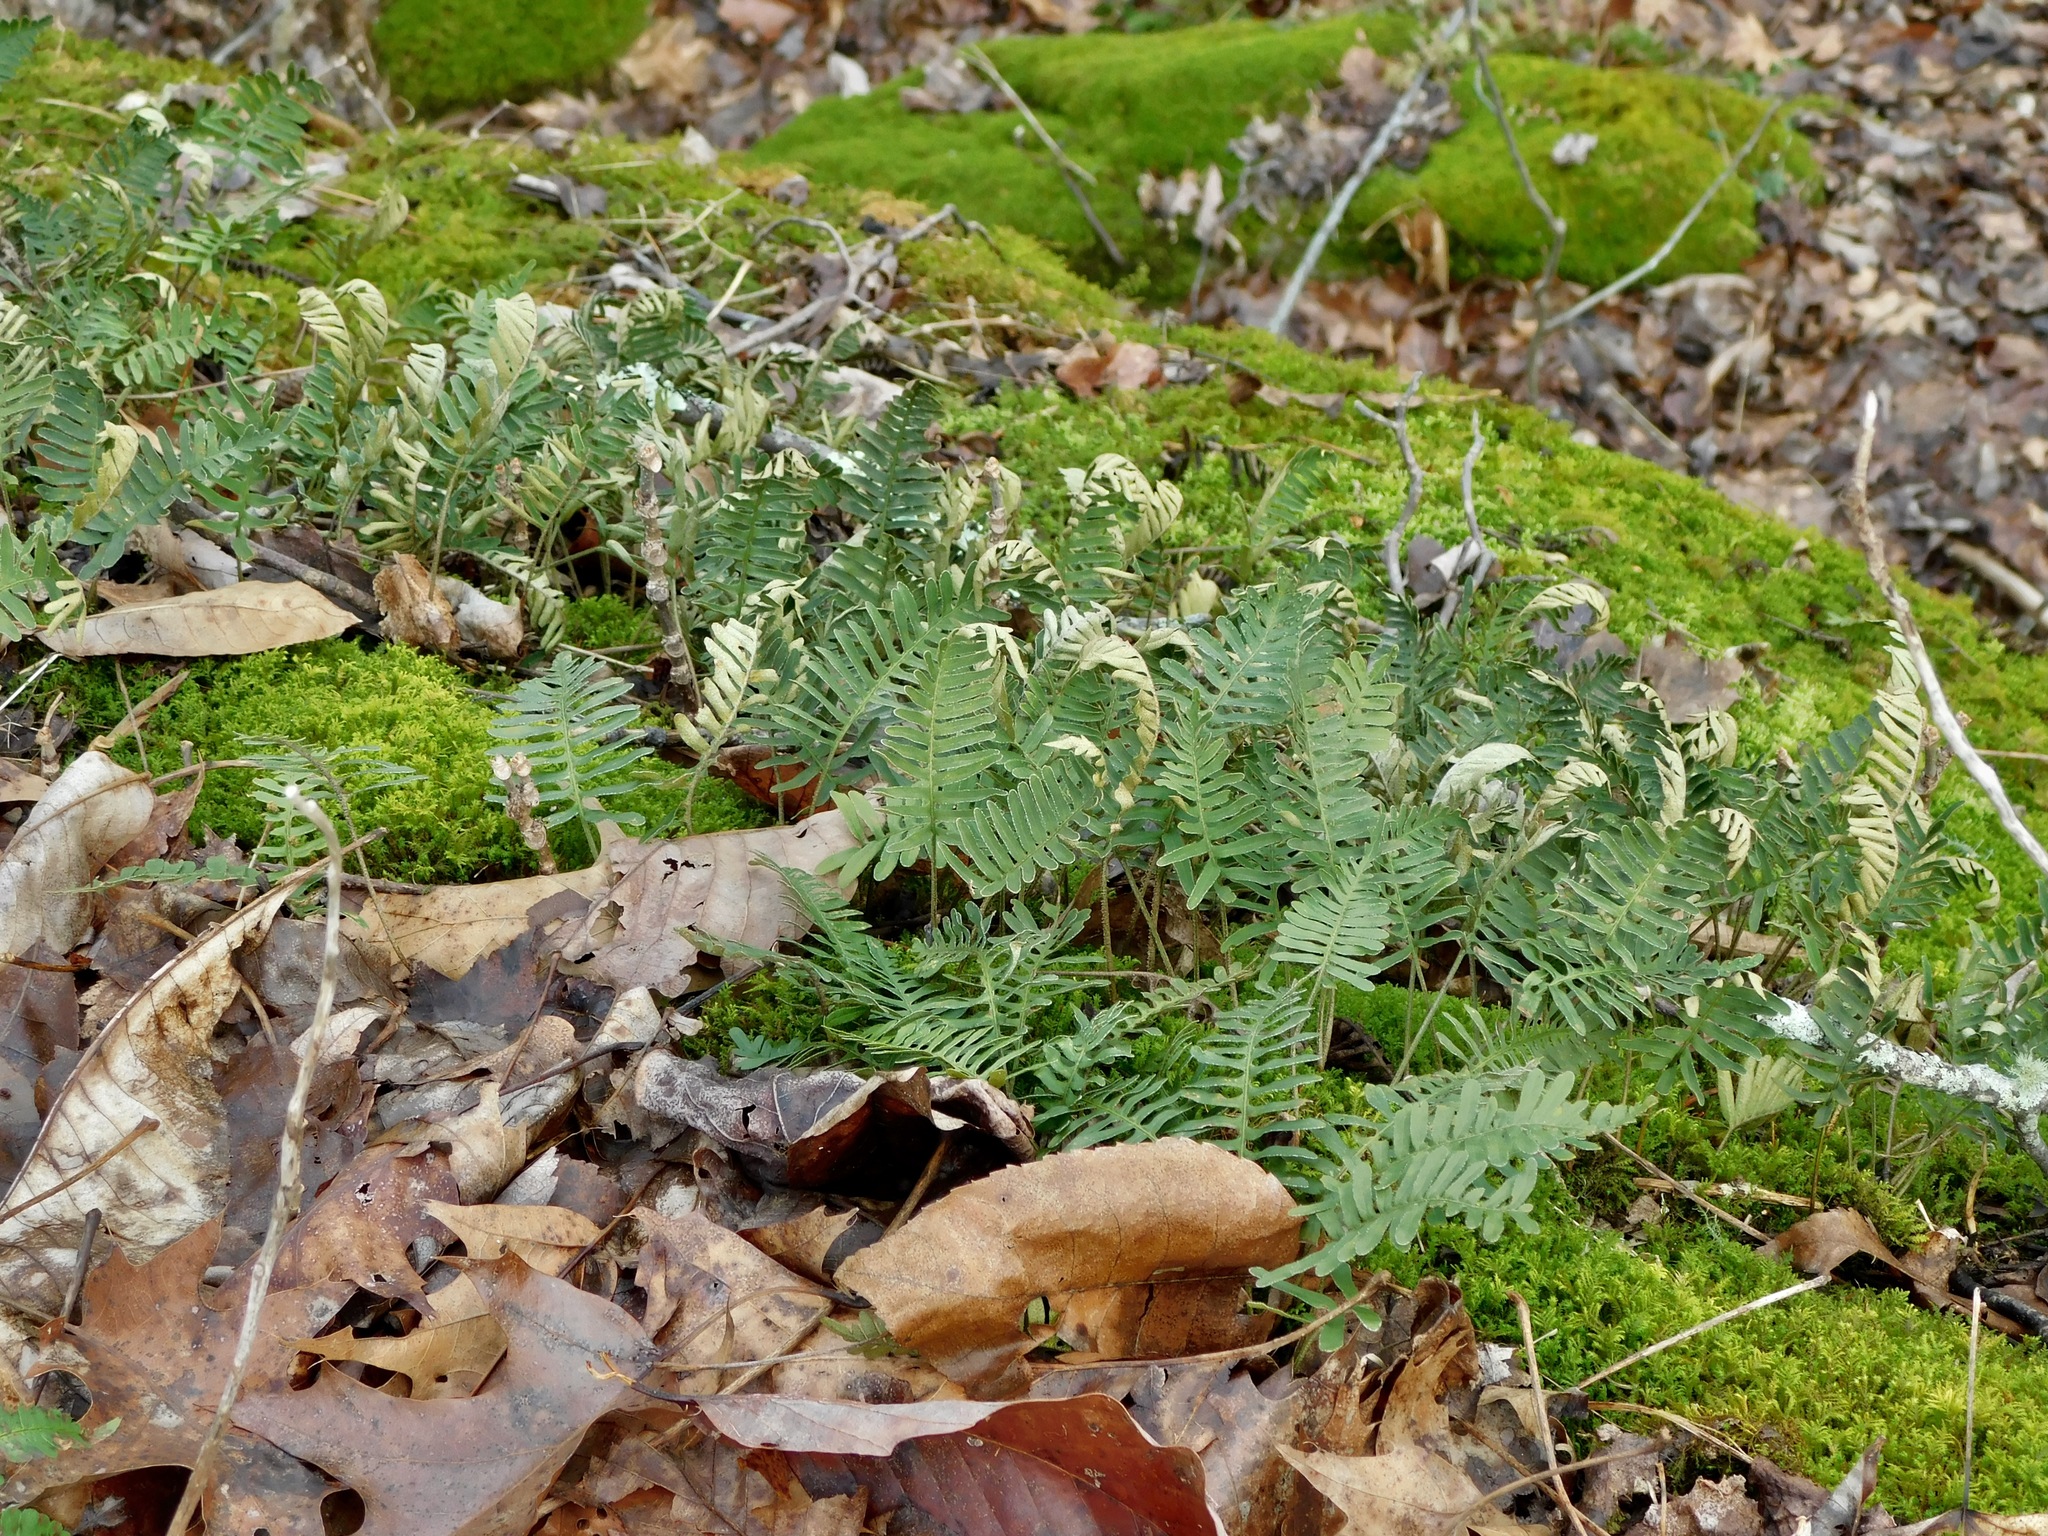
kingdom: Plantae
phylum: Tracheophyta
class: Polypodiopsida
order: Polypodiales
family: Polypodiaceae
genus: Pleopeltis
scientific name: Pleopeltis michauxiana
